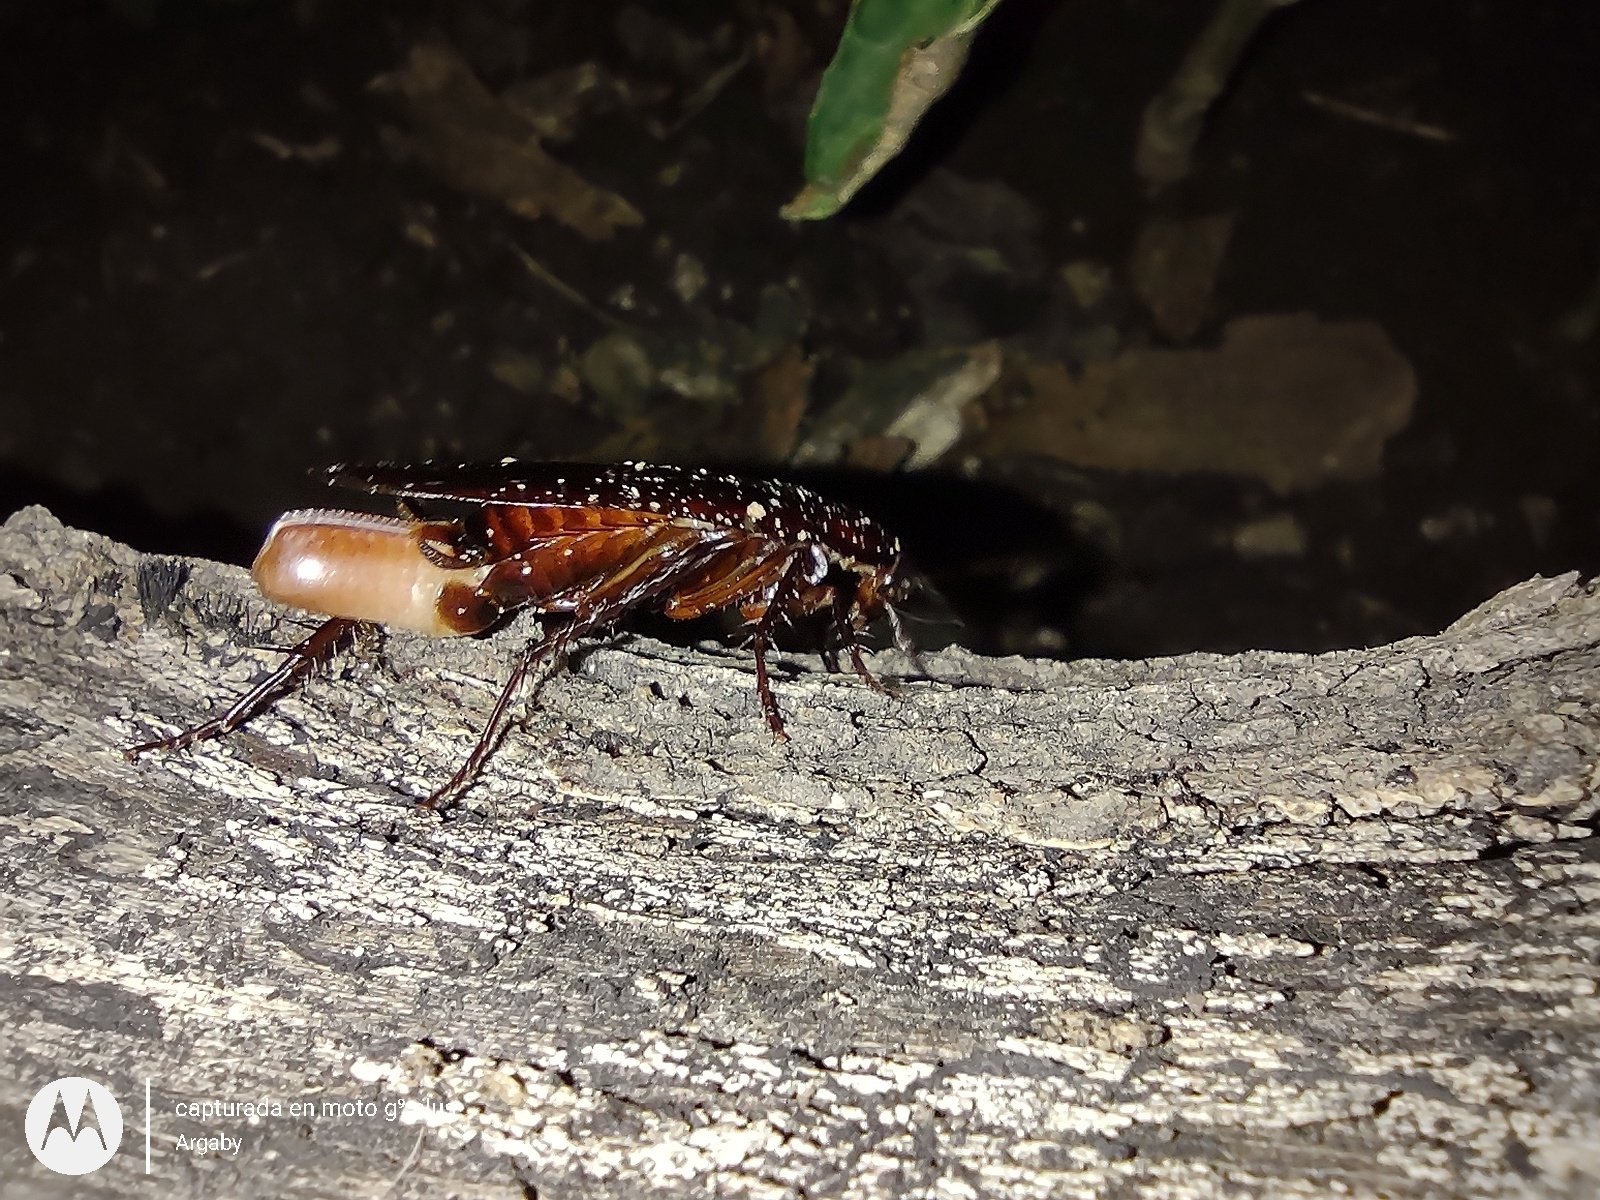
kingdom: Animalia
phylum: Arthropoda
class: Insecta
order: Blattodea
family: Blattidae
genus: Periplaneta
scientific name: Periplaneta fuliginosa
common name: Smokeybrown cockroad
